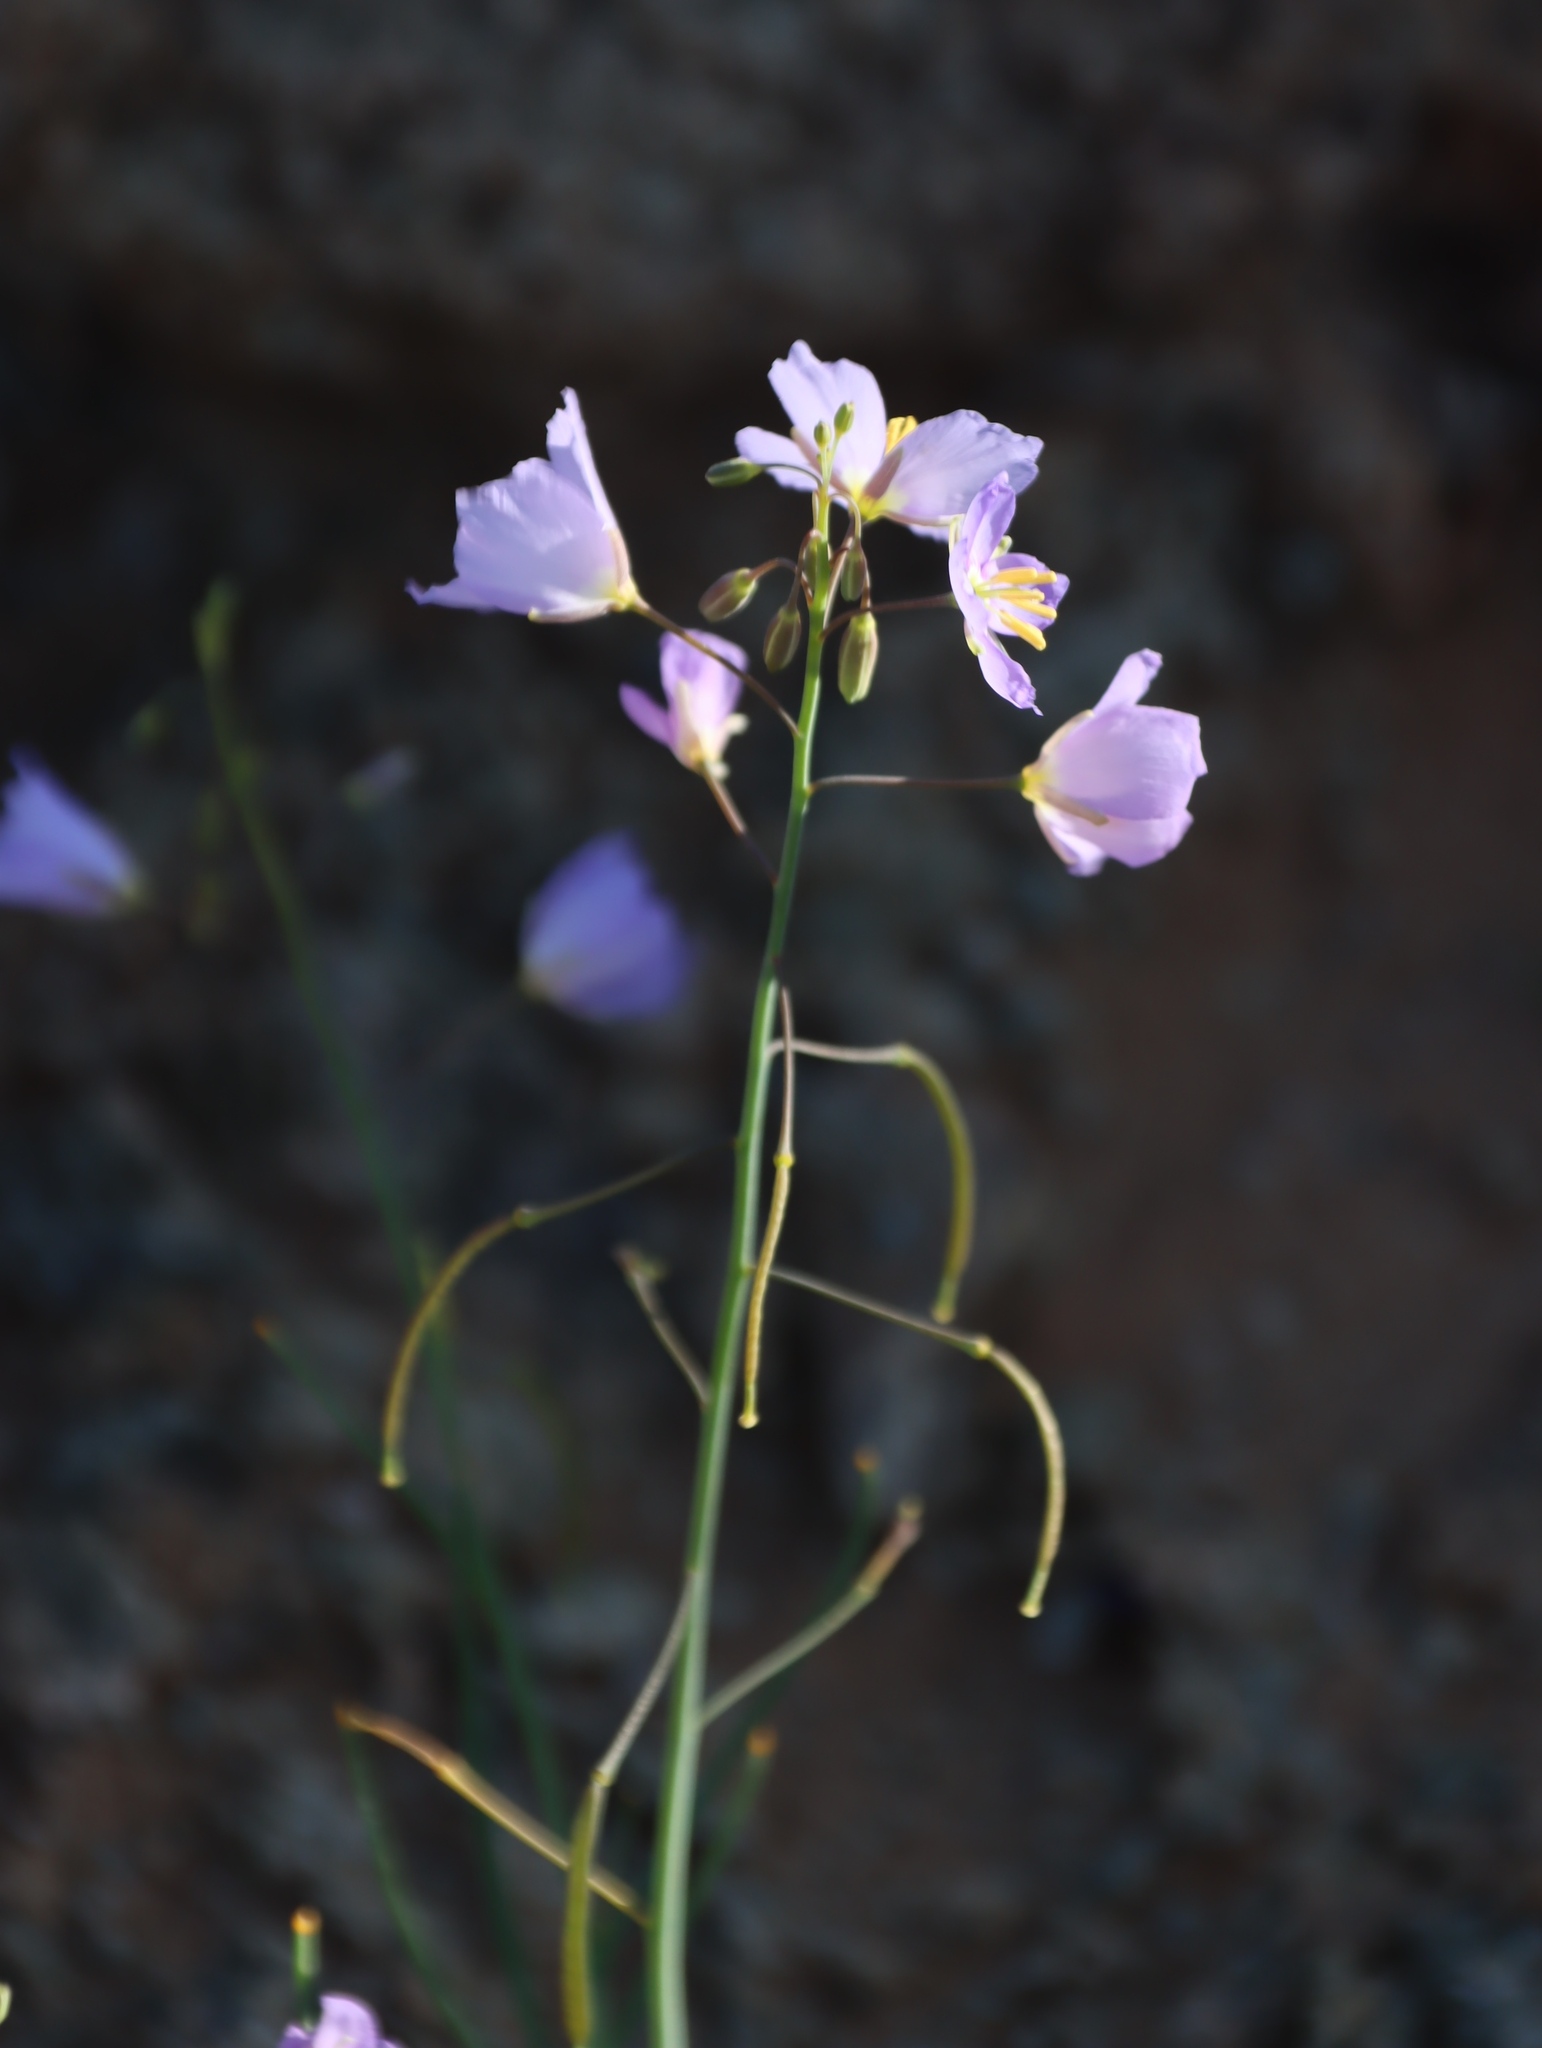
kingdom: Plantae
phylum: Tracheophyta
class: Magnoliopsida
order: Brassicales
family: Brassicaceae
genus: Heliophila
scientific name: Heliophila trifurca
